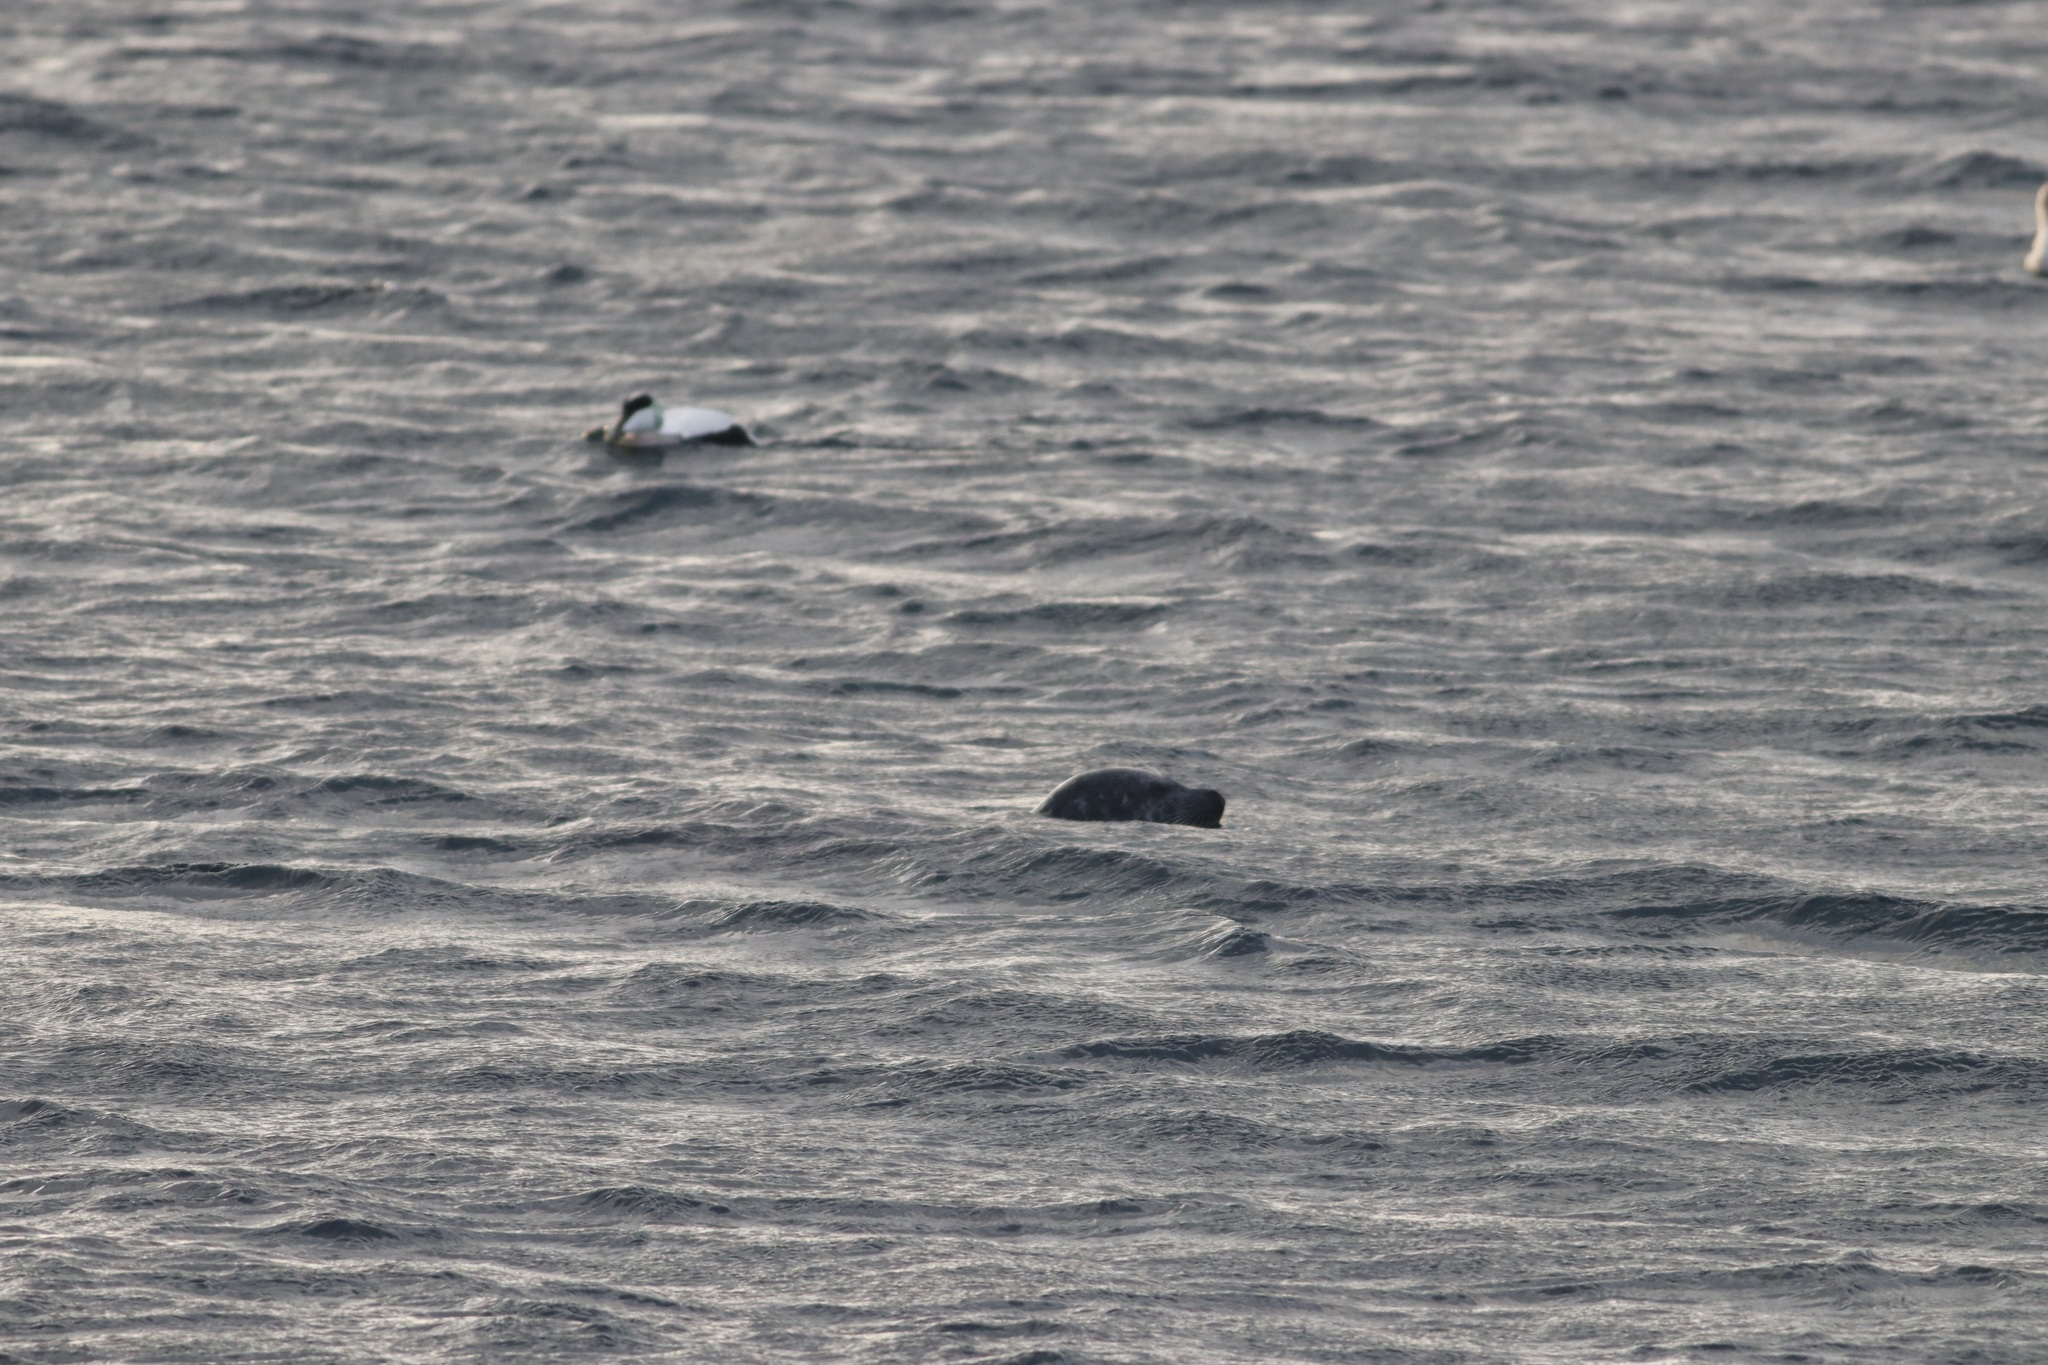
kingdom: Animalia
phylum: Chordata
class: Mammalia
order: Carnivora
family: Phocidae
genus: Phoca
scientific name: Phoca vitulina
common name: Harbor seal
